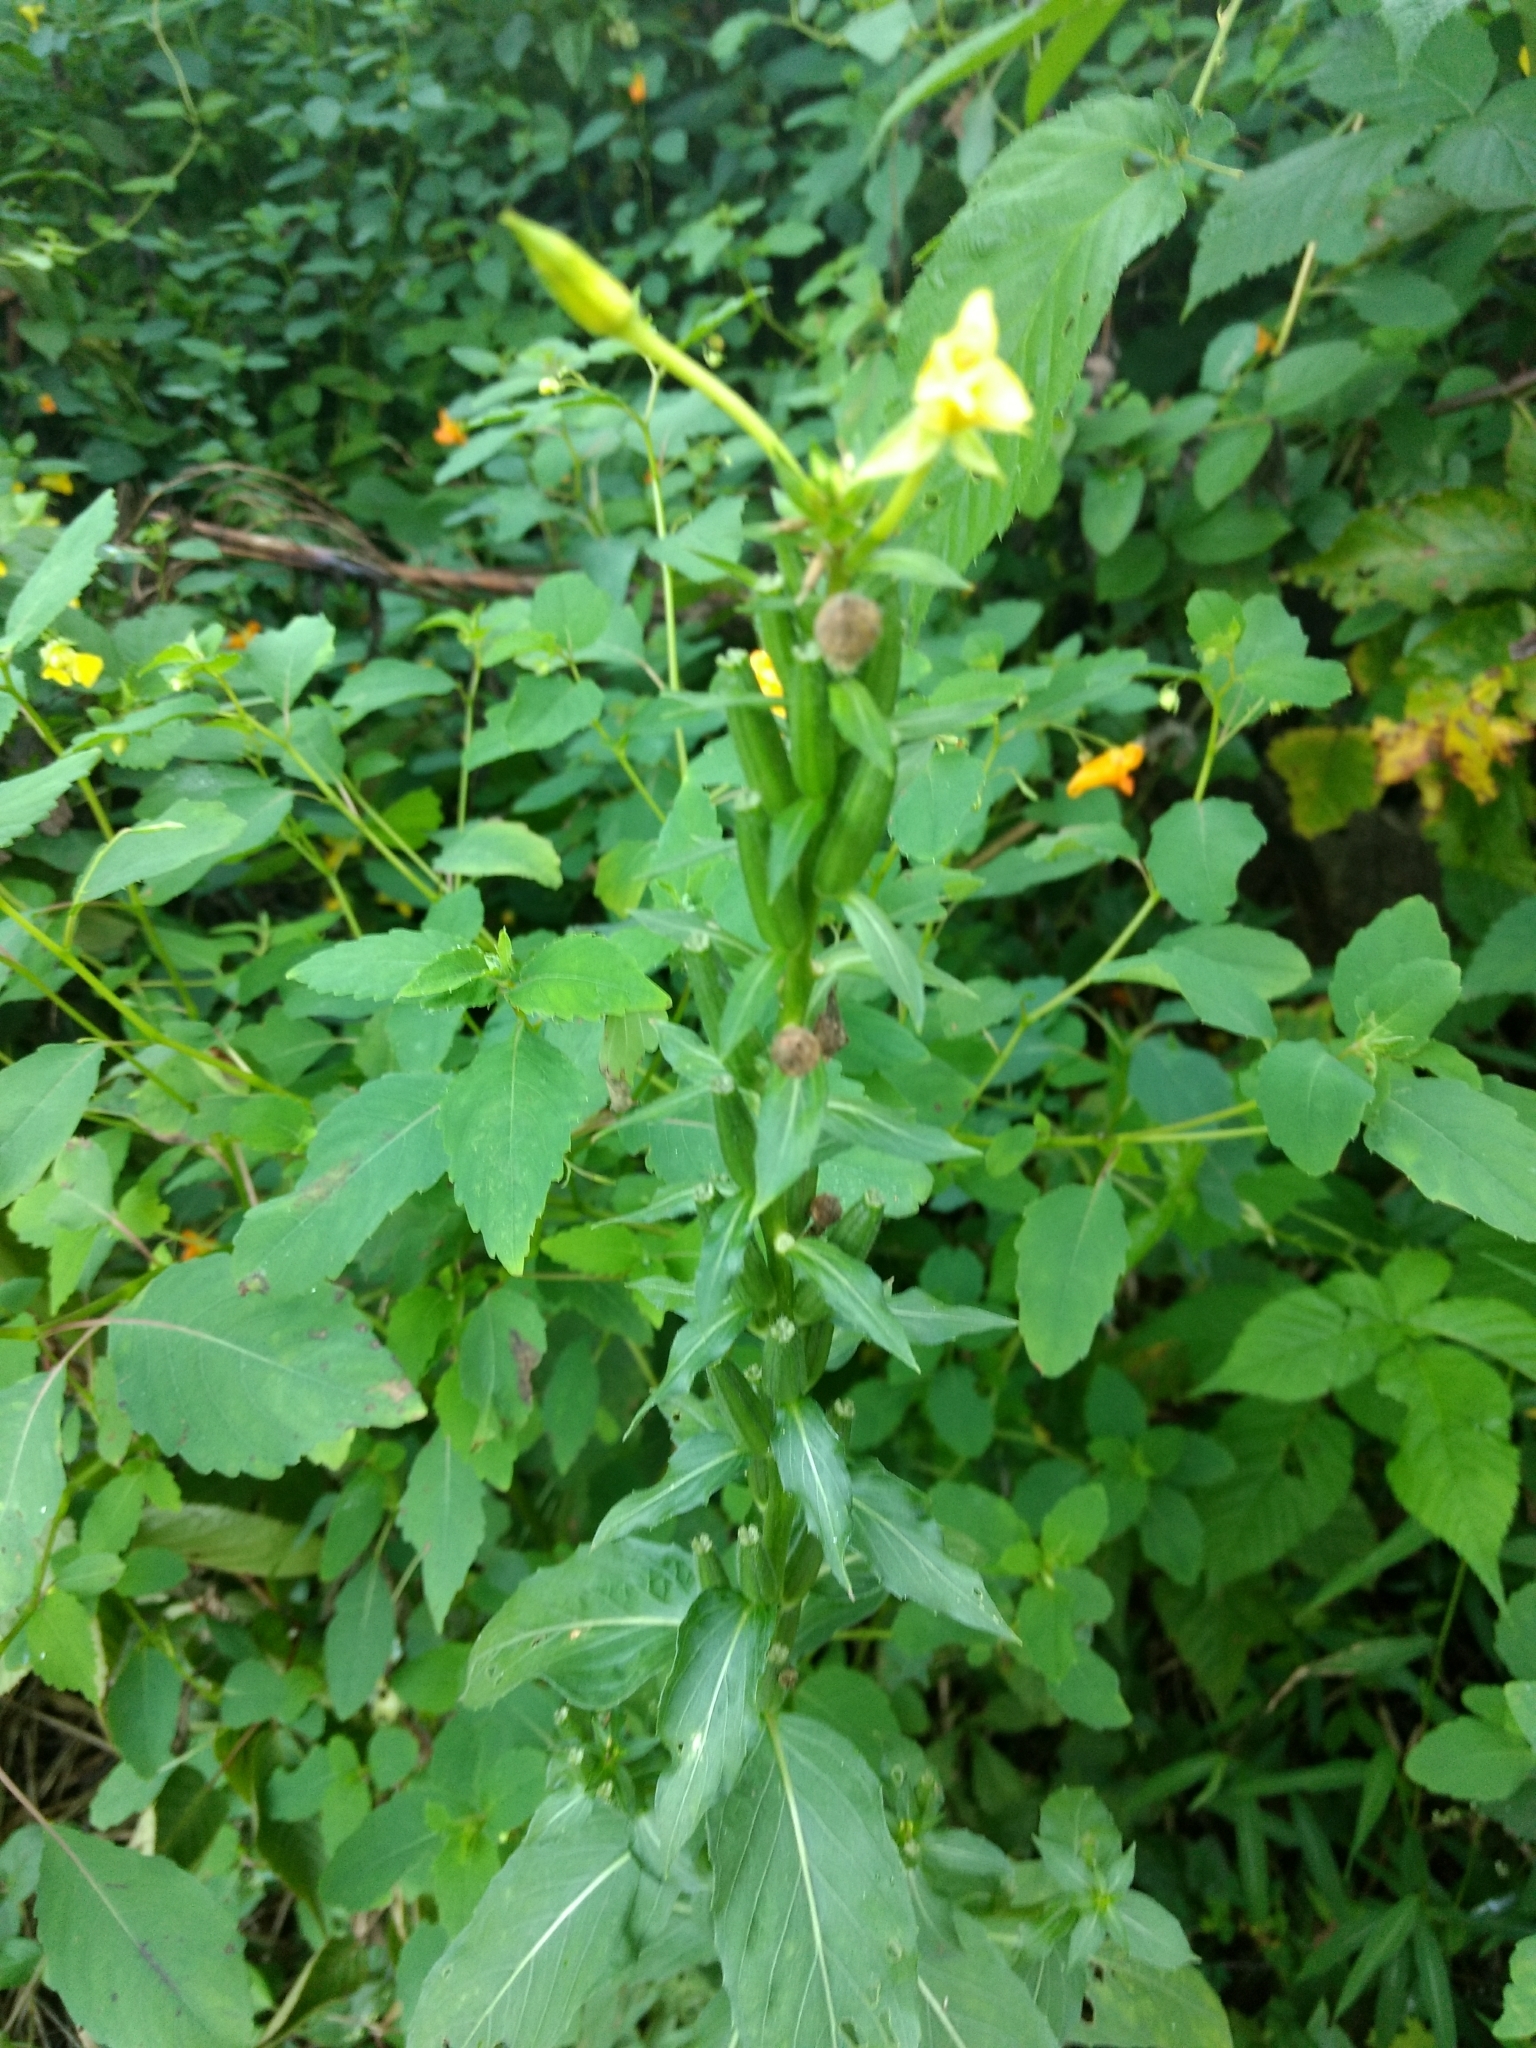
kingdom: Plantae
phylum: Tracheophyta
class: Magnoliopsida
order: Myrtales
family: Onagraceae
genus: Oenothera
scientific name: Oenothera biennis
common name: Common evening-primrose
